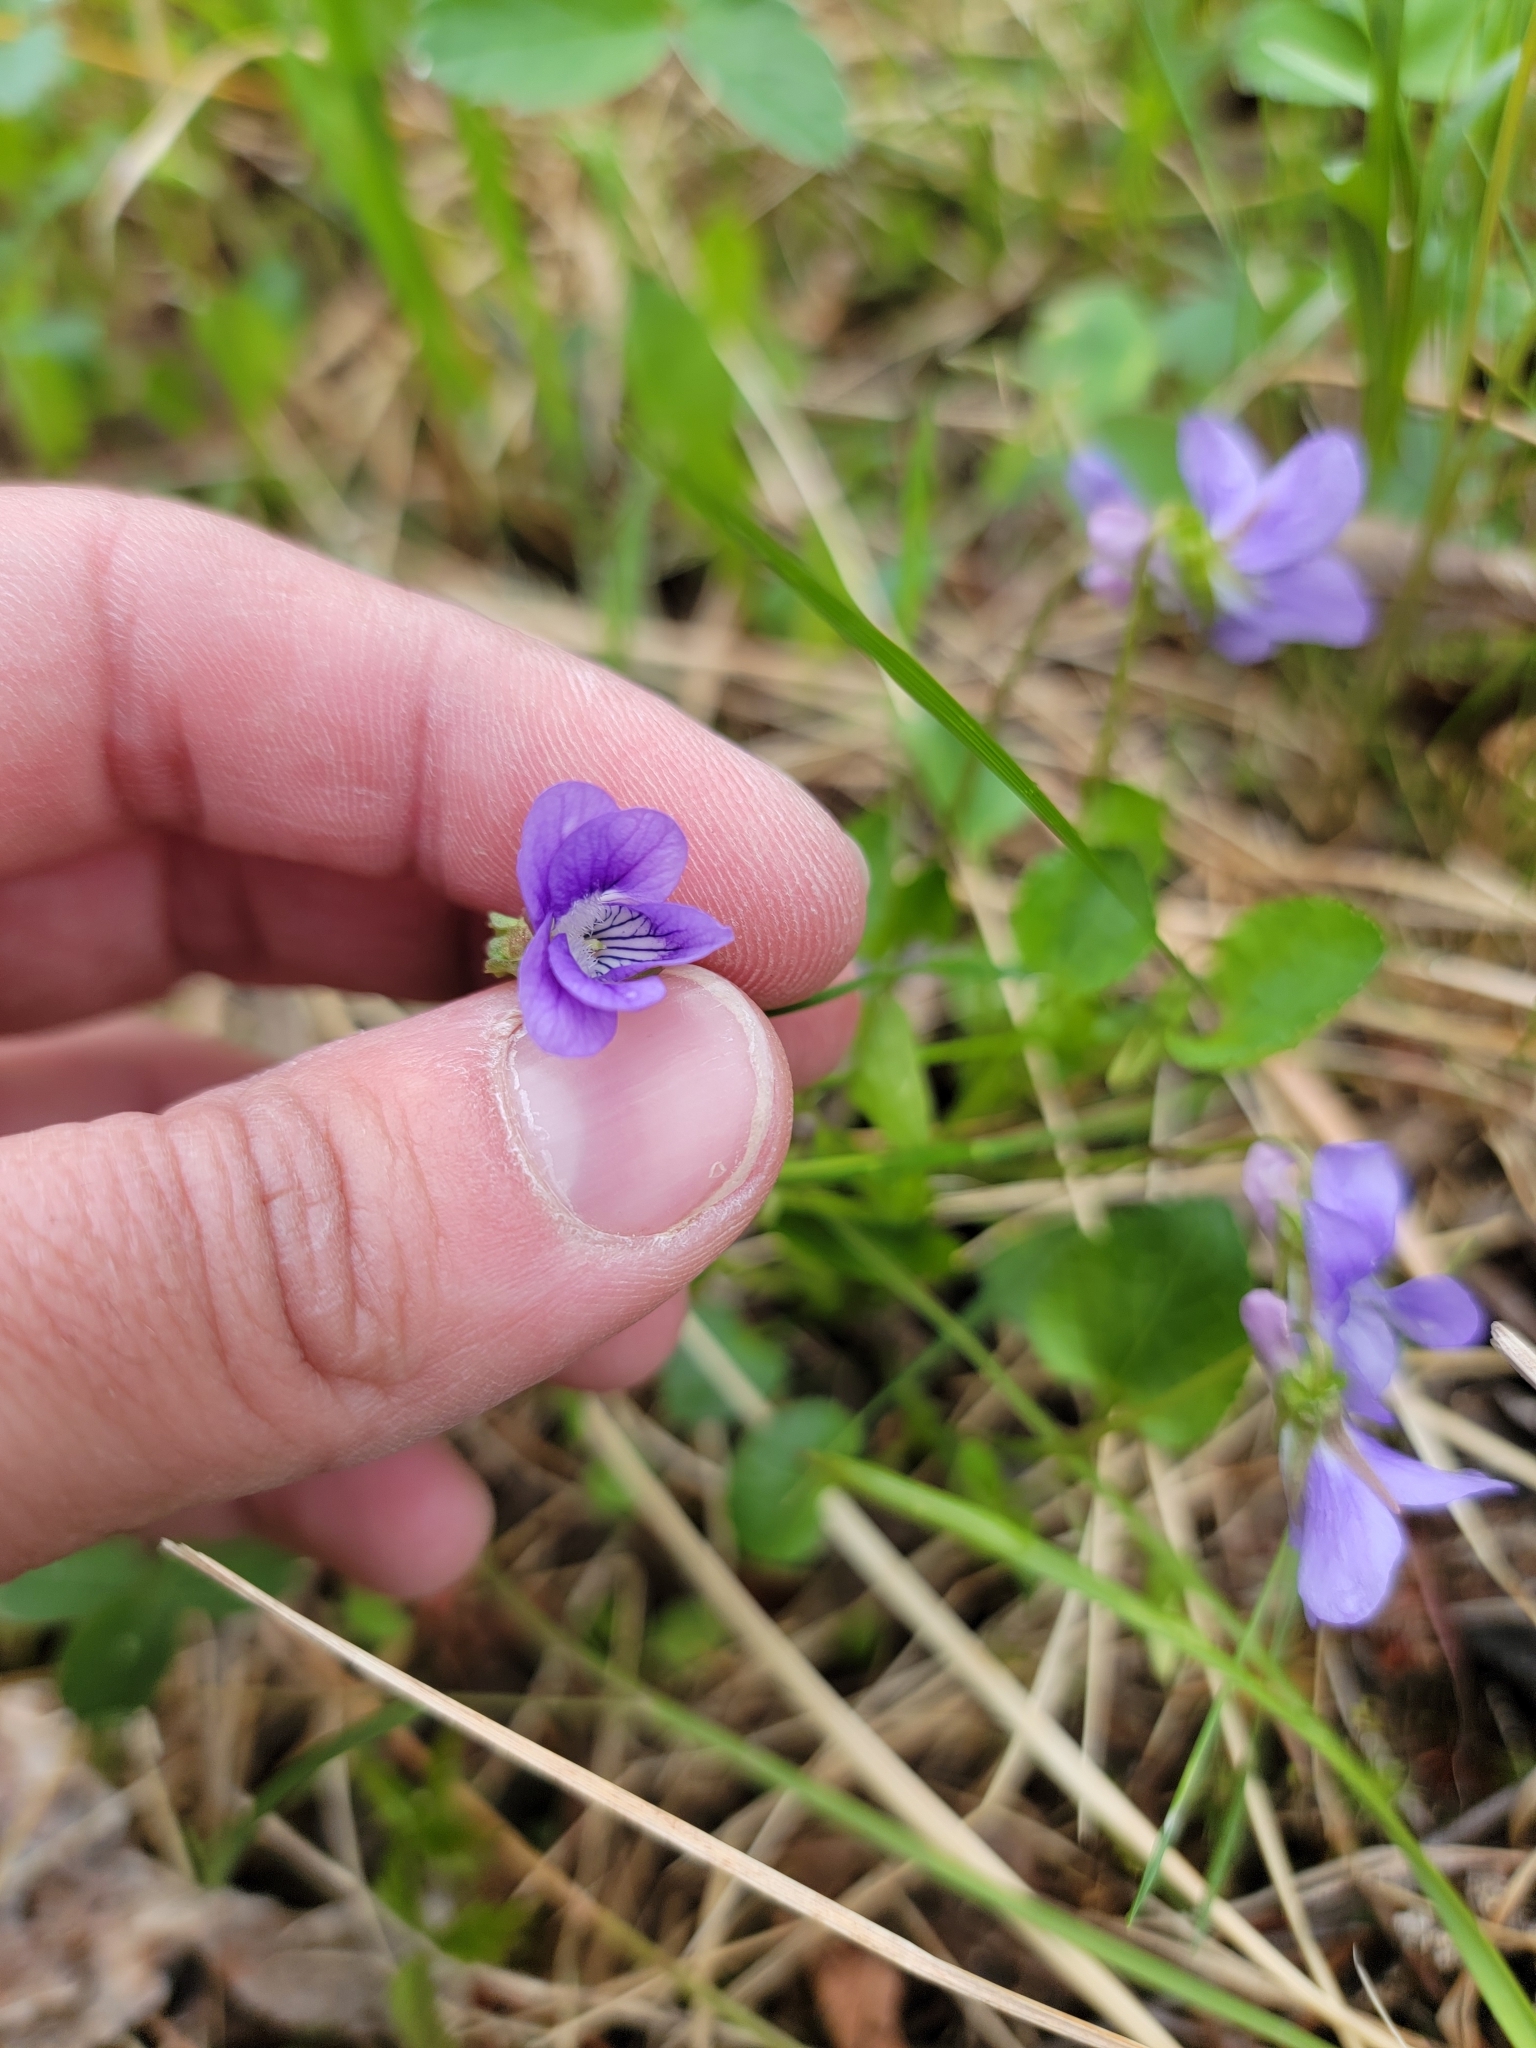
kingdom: Plantae
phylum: Tracheophyta
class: Magnoliopsida
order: Malpighiales
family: Violaceae
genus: Viola
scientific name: Viola adunca
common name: Sand violet
